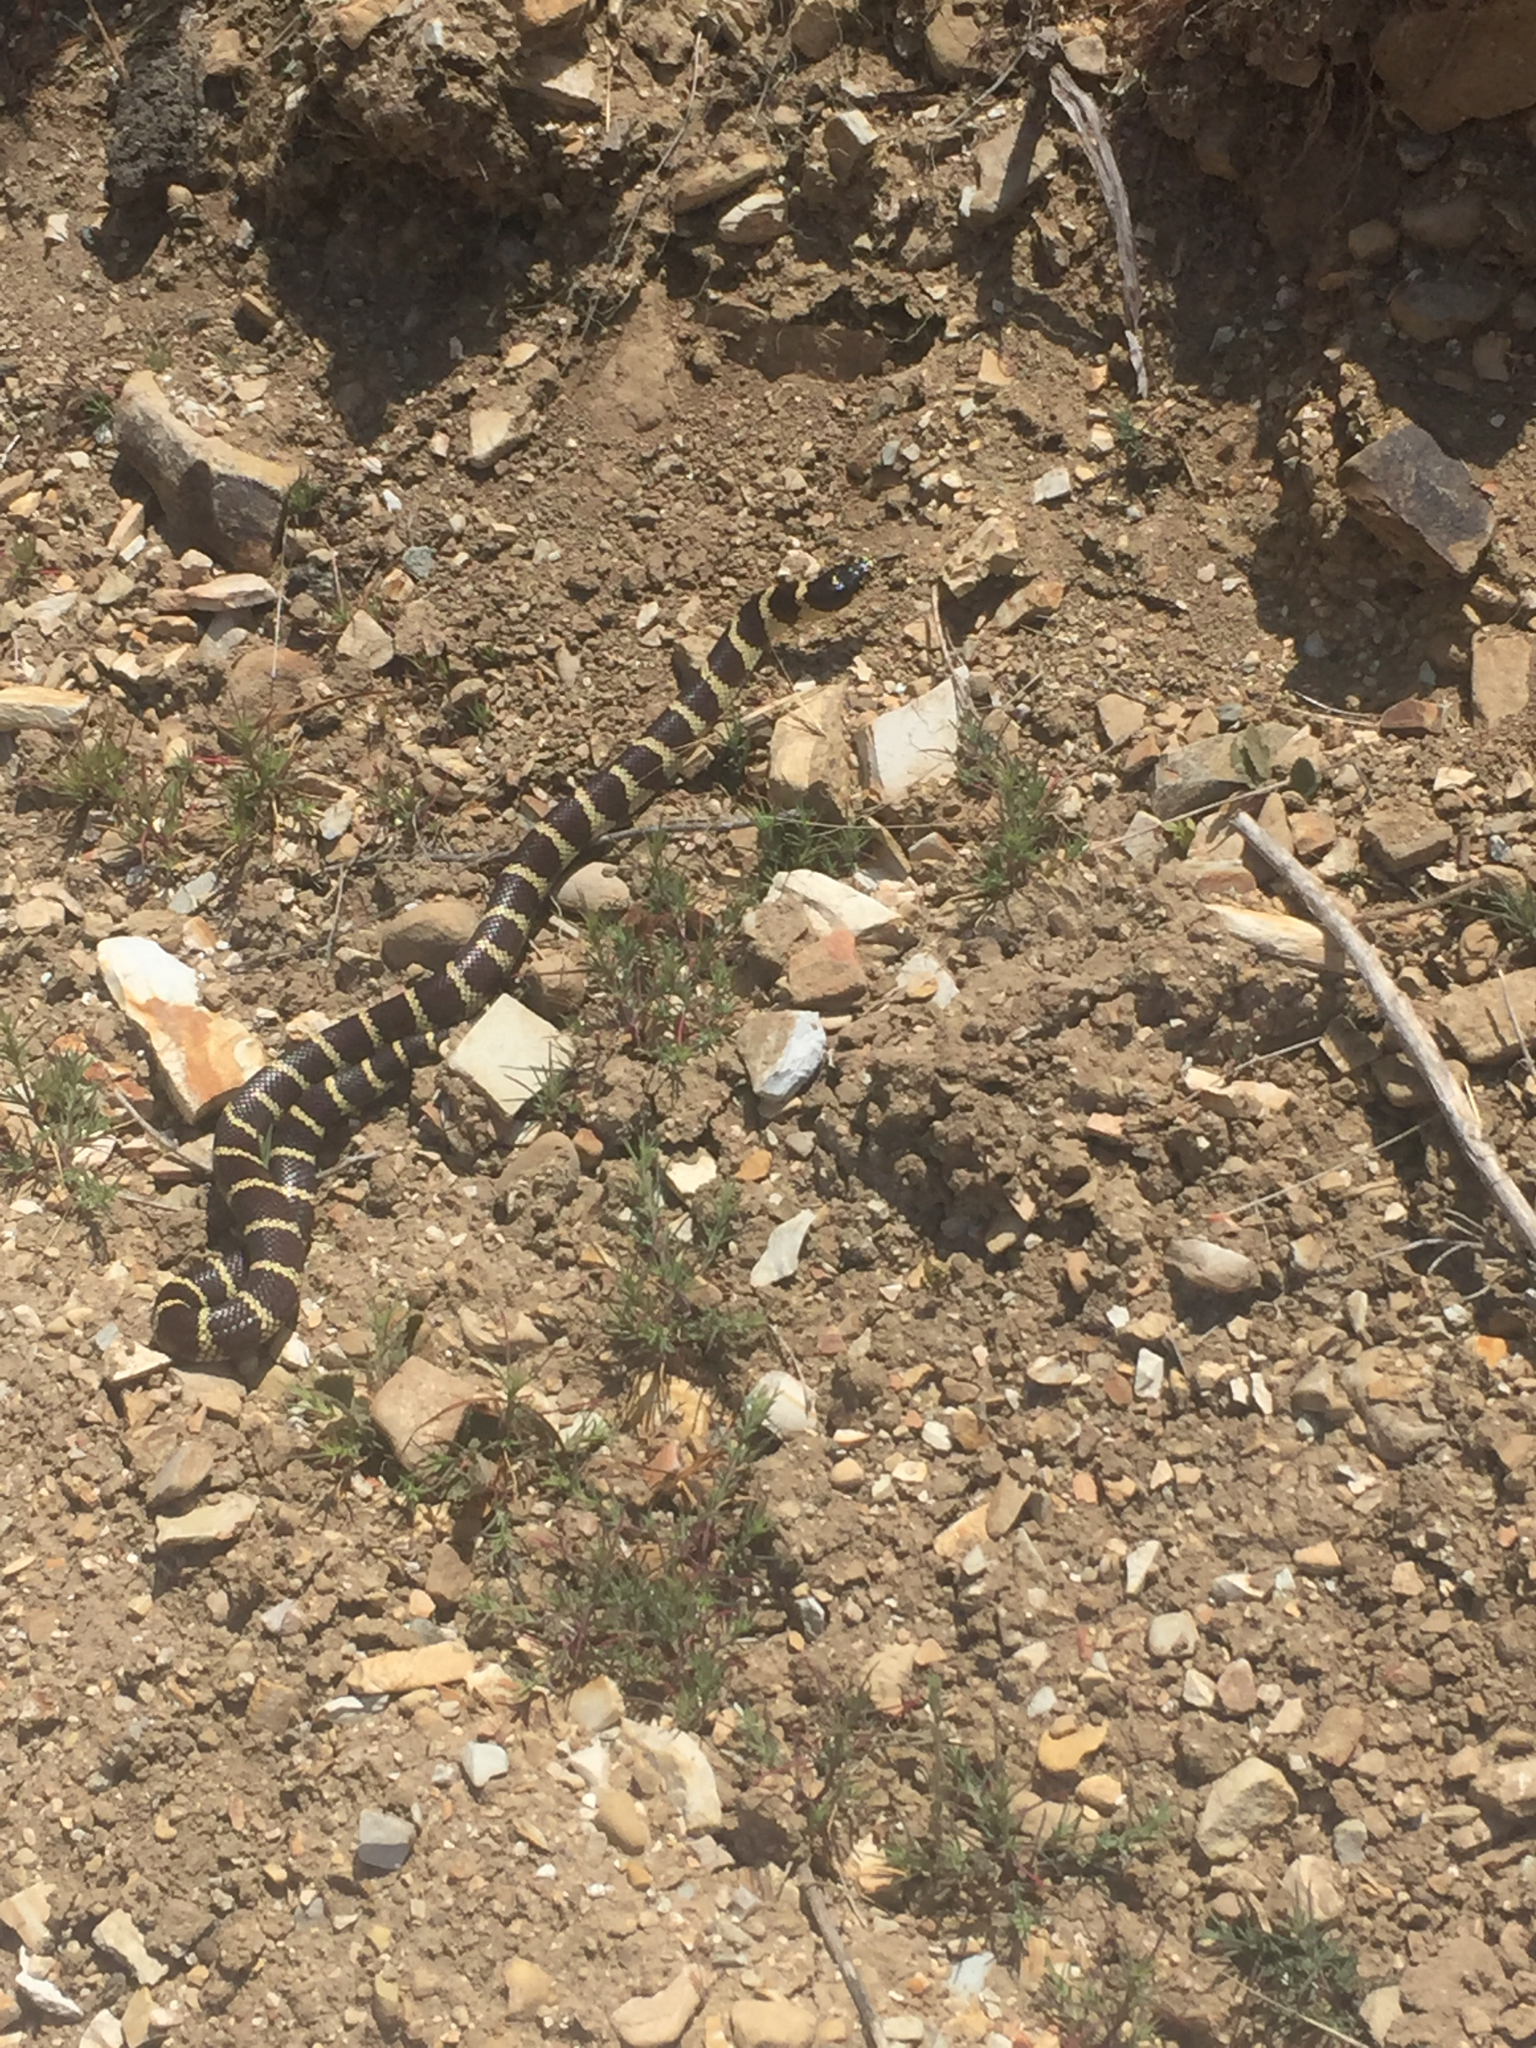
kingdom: Animalia
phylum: Chordata
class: Squamata
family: Colubridae
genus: Lampropeltis
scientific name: Lampropeltis californiae
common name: California kingsnake
